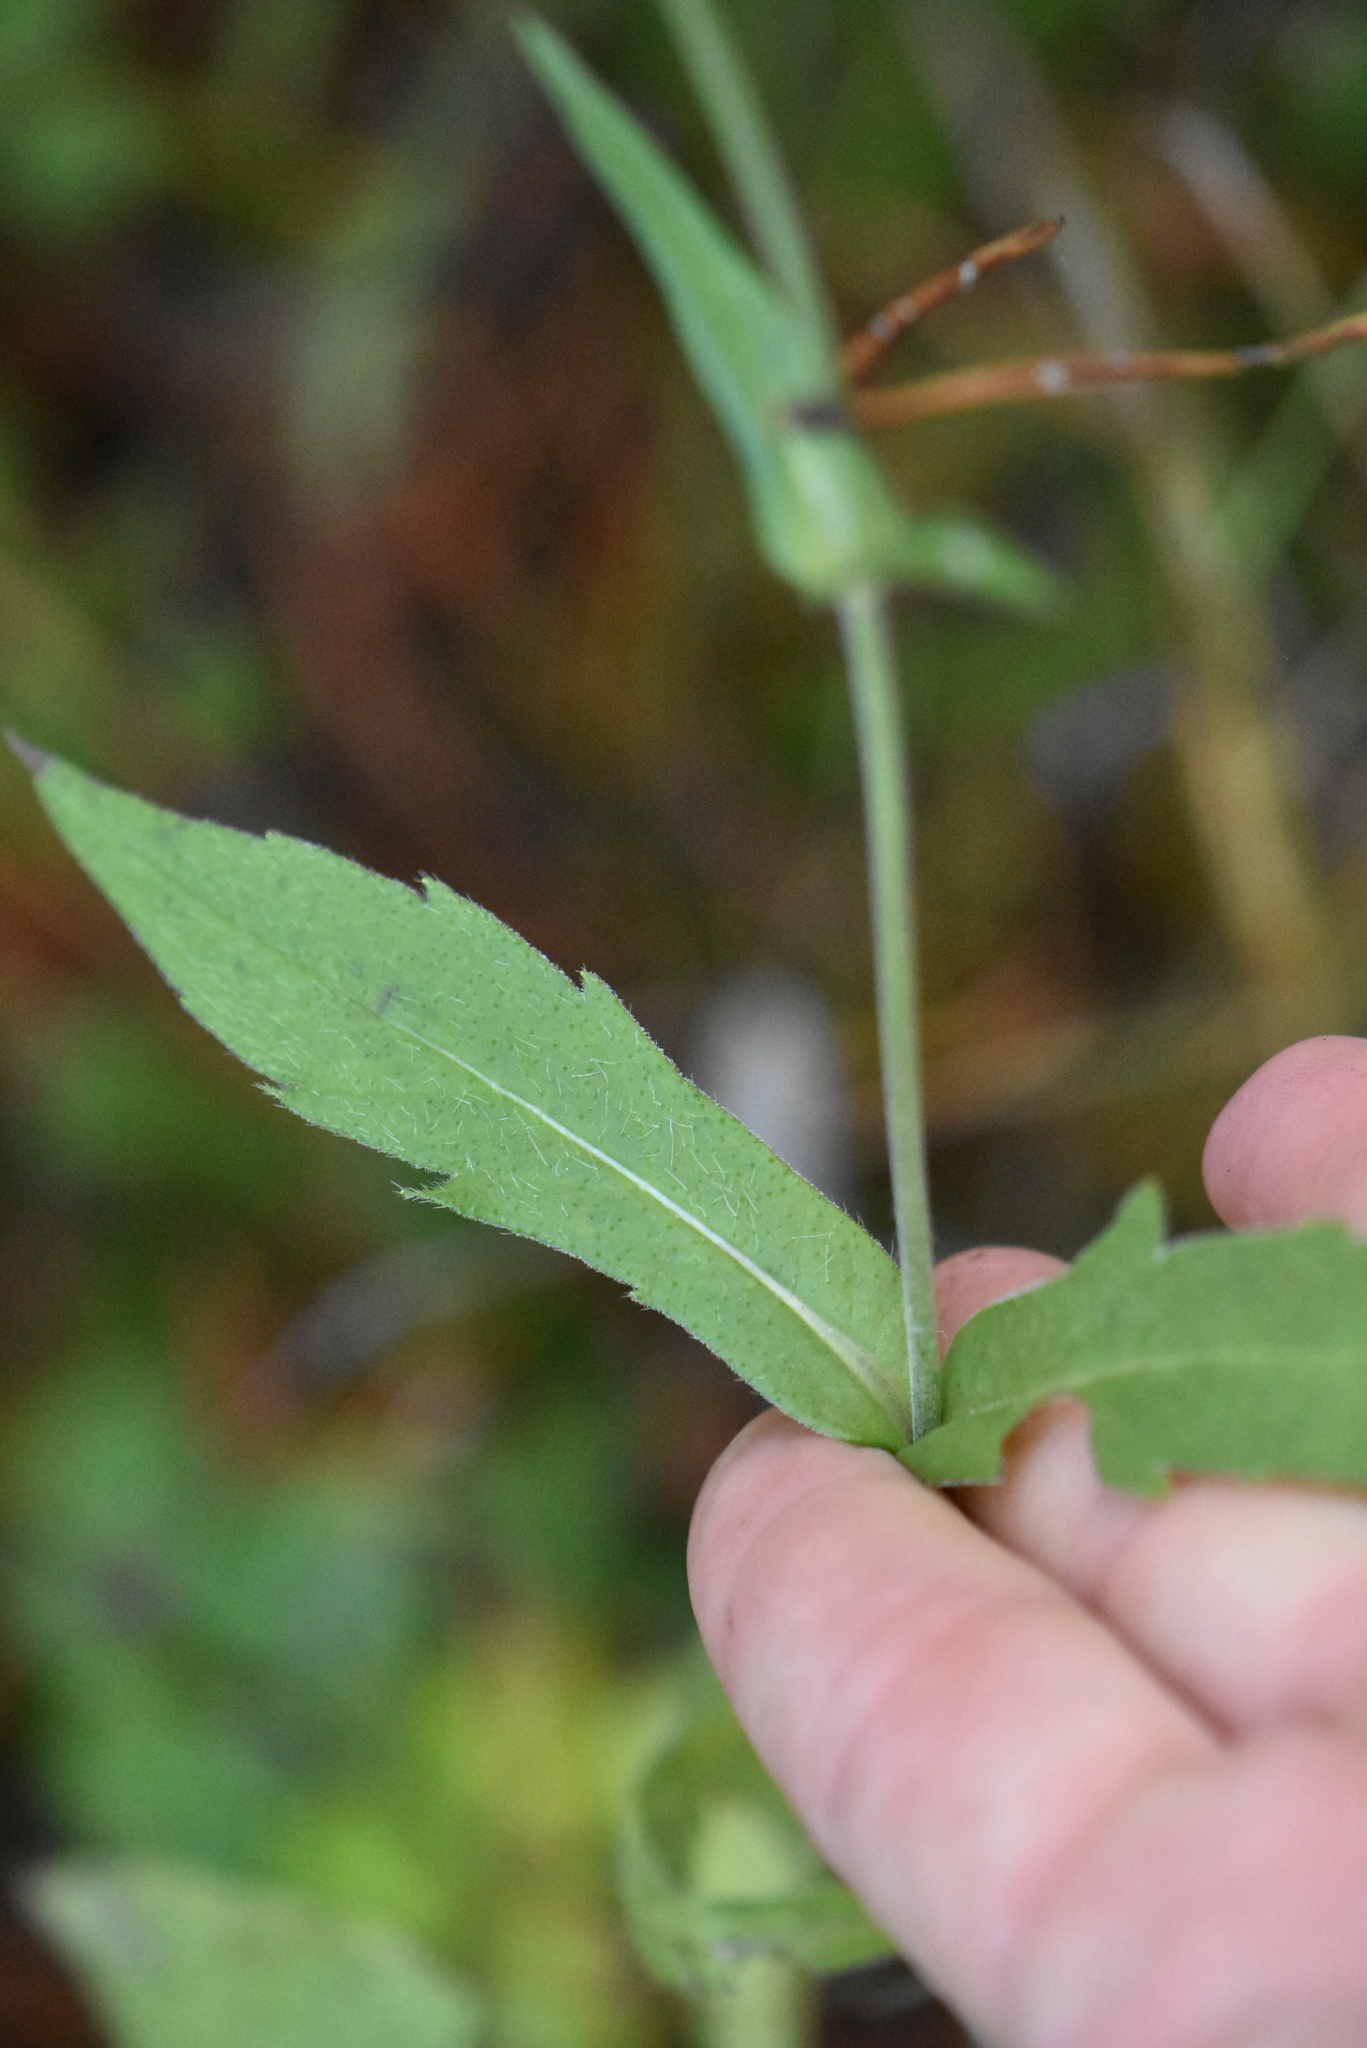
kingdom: Plantae
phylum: Tracheophyta
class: Magnoliopsida
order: Dipsacales
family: Caprifoliaceae
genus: Knautia
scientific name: Knautia arvensis
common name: Field scabiosa
